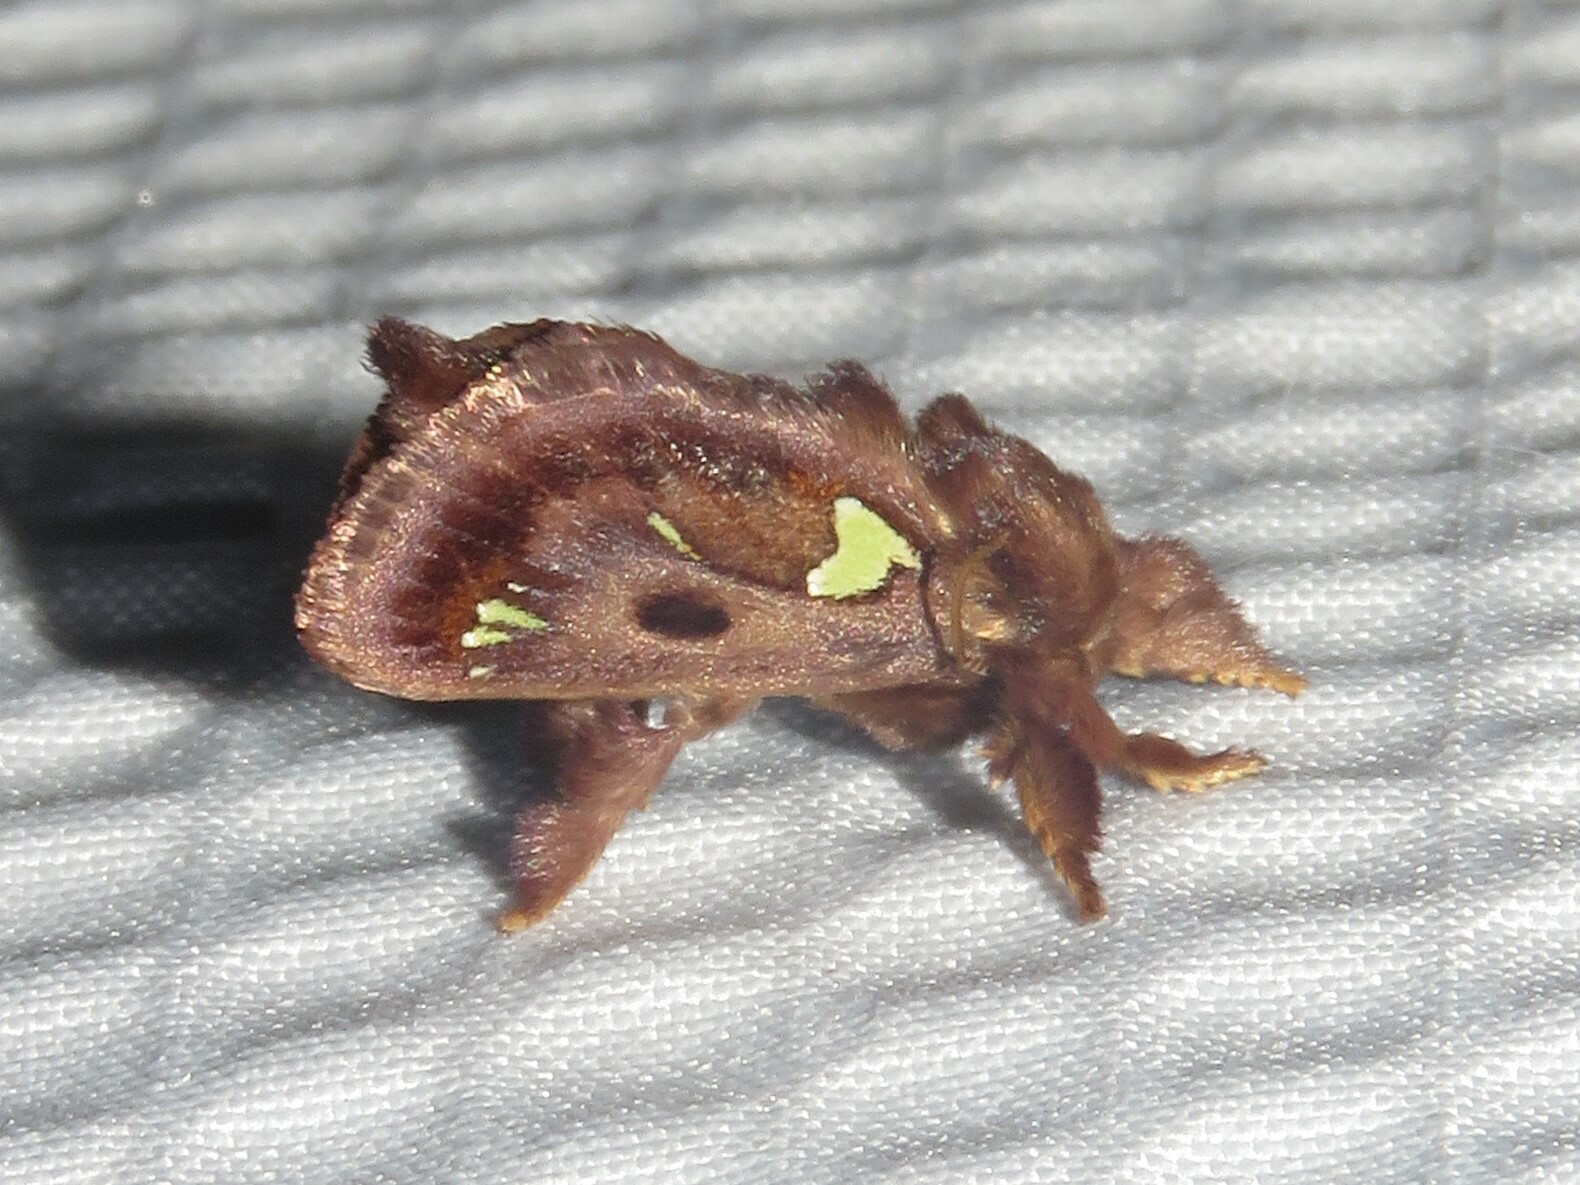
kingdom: Animalia
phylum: Arthropoda
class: Insecta
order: Lepidoptera
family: Limacodidae
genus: Euclea
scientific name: Euclea delphinii
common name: Spiny oak-slug moth
